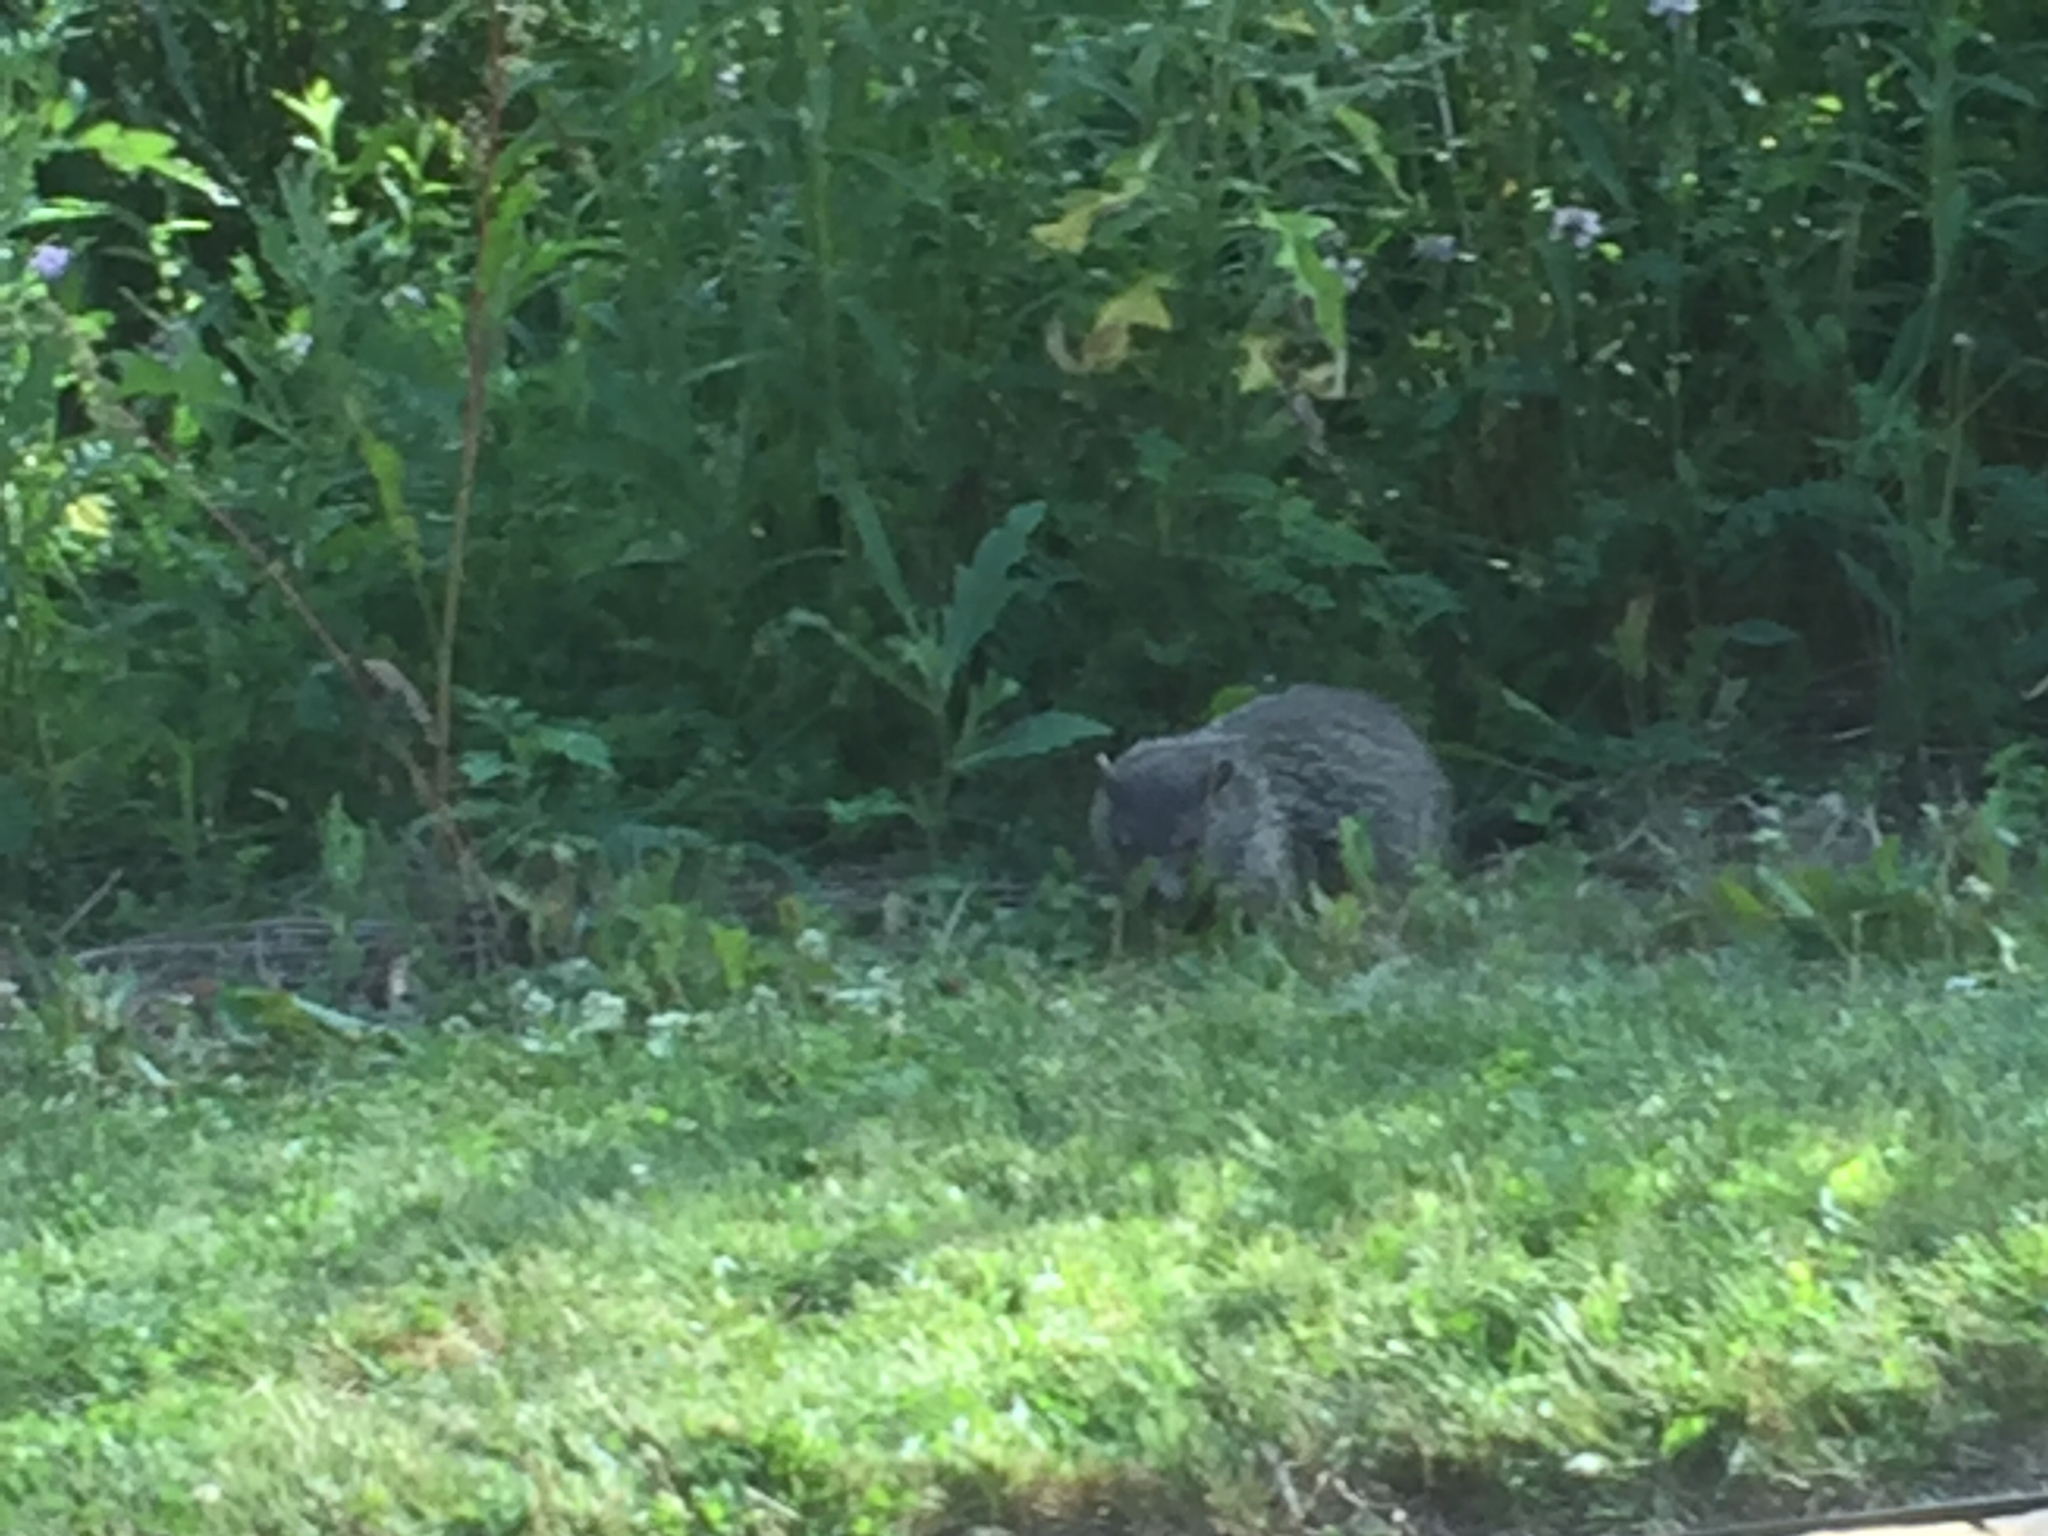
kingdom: Animalia
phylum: Chordata
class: Mammalia
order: Rodentia
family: Sciuridae
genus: Marmota
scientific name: Marmota monax
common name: Groundhog
